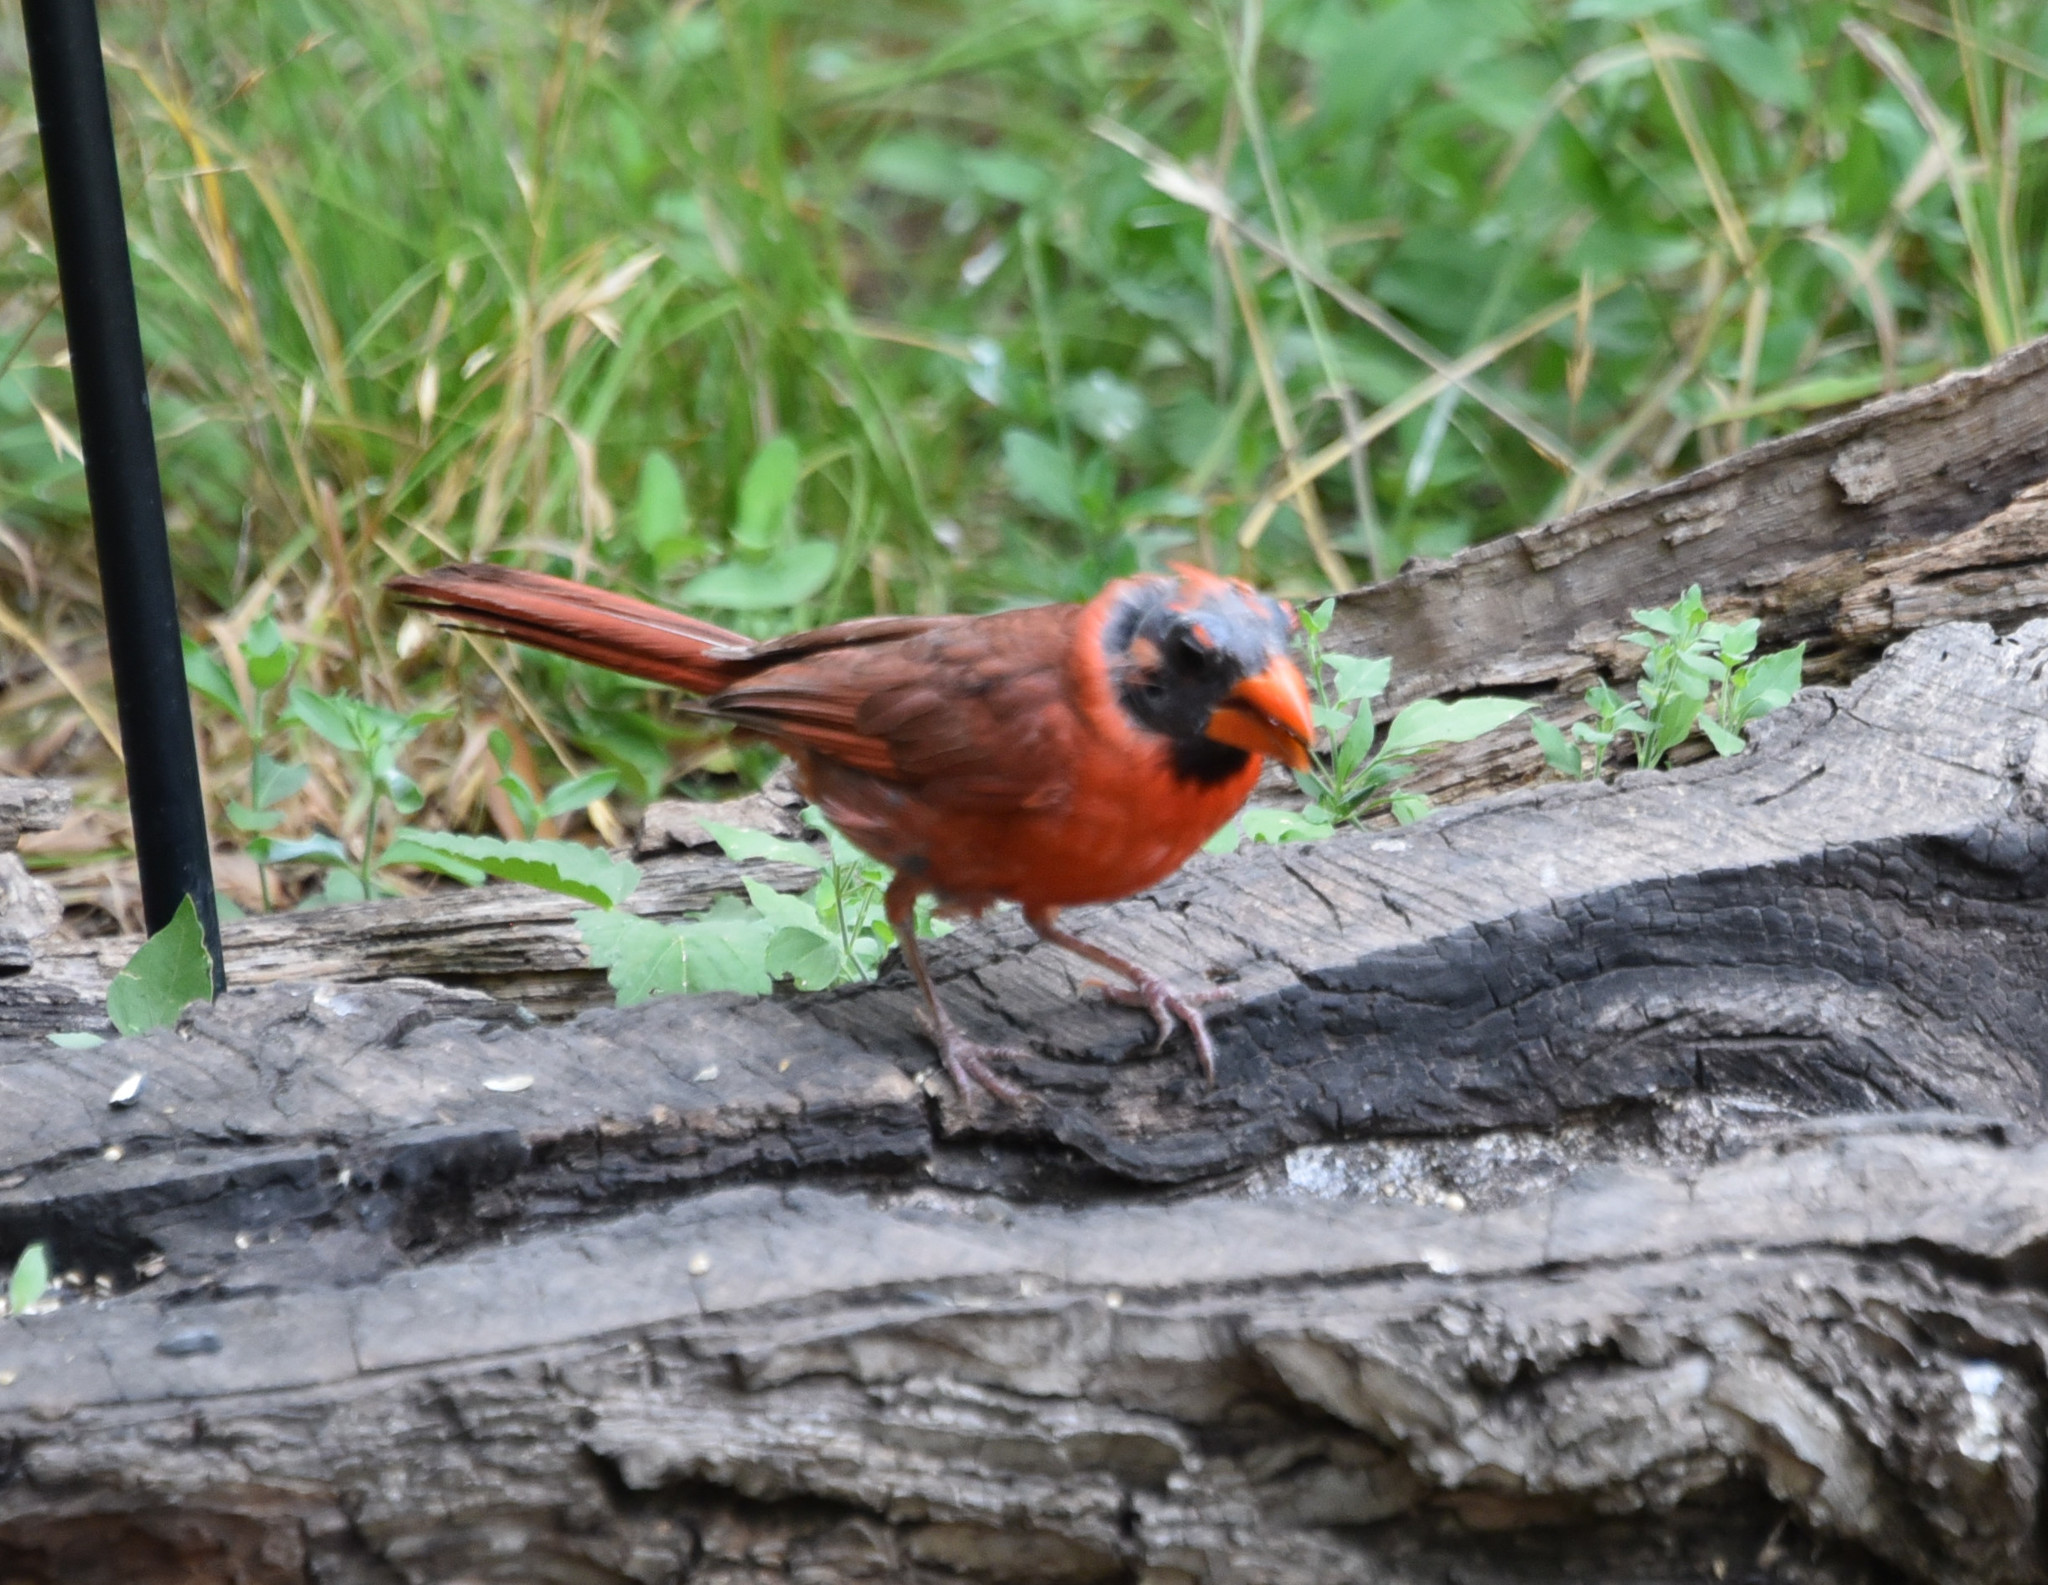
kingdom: Animalia
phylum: Chordata
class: Aves
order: Passeriformes
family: Cardinalidae
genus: Cardinalis
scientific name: Cardinalis cardinalis
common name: Northern cardinal
